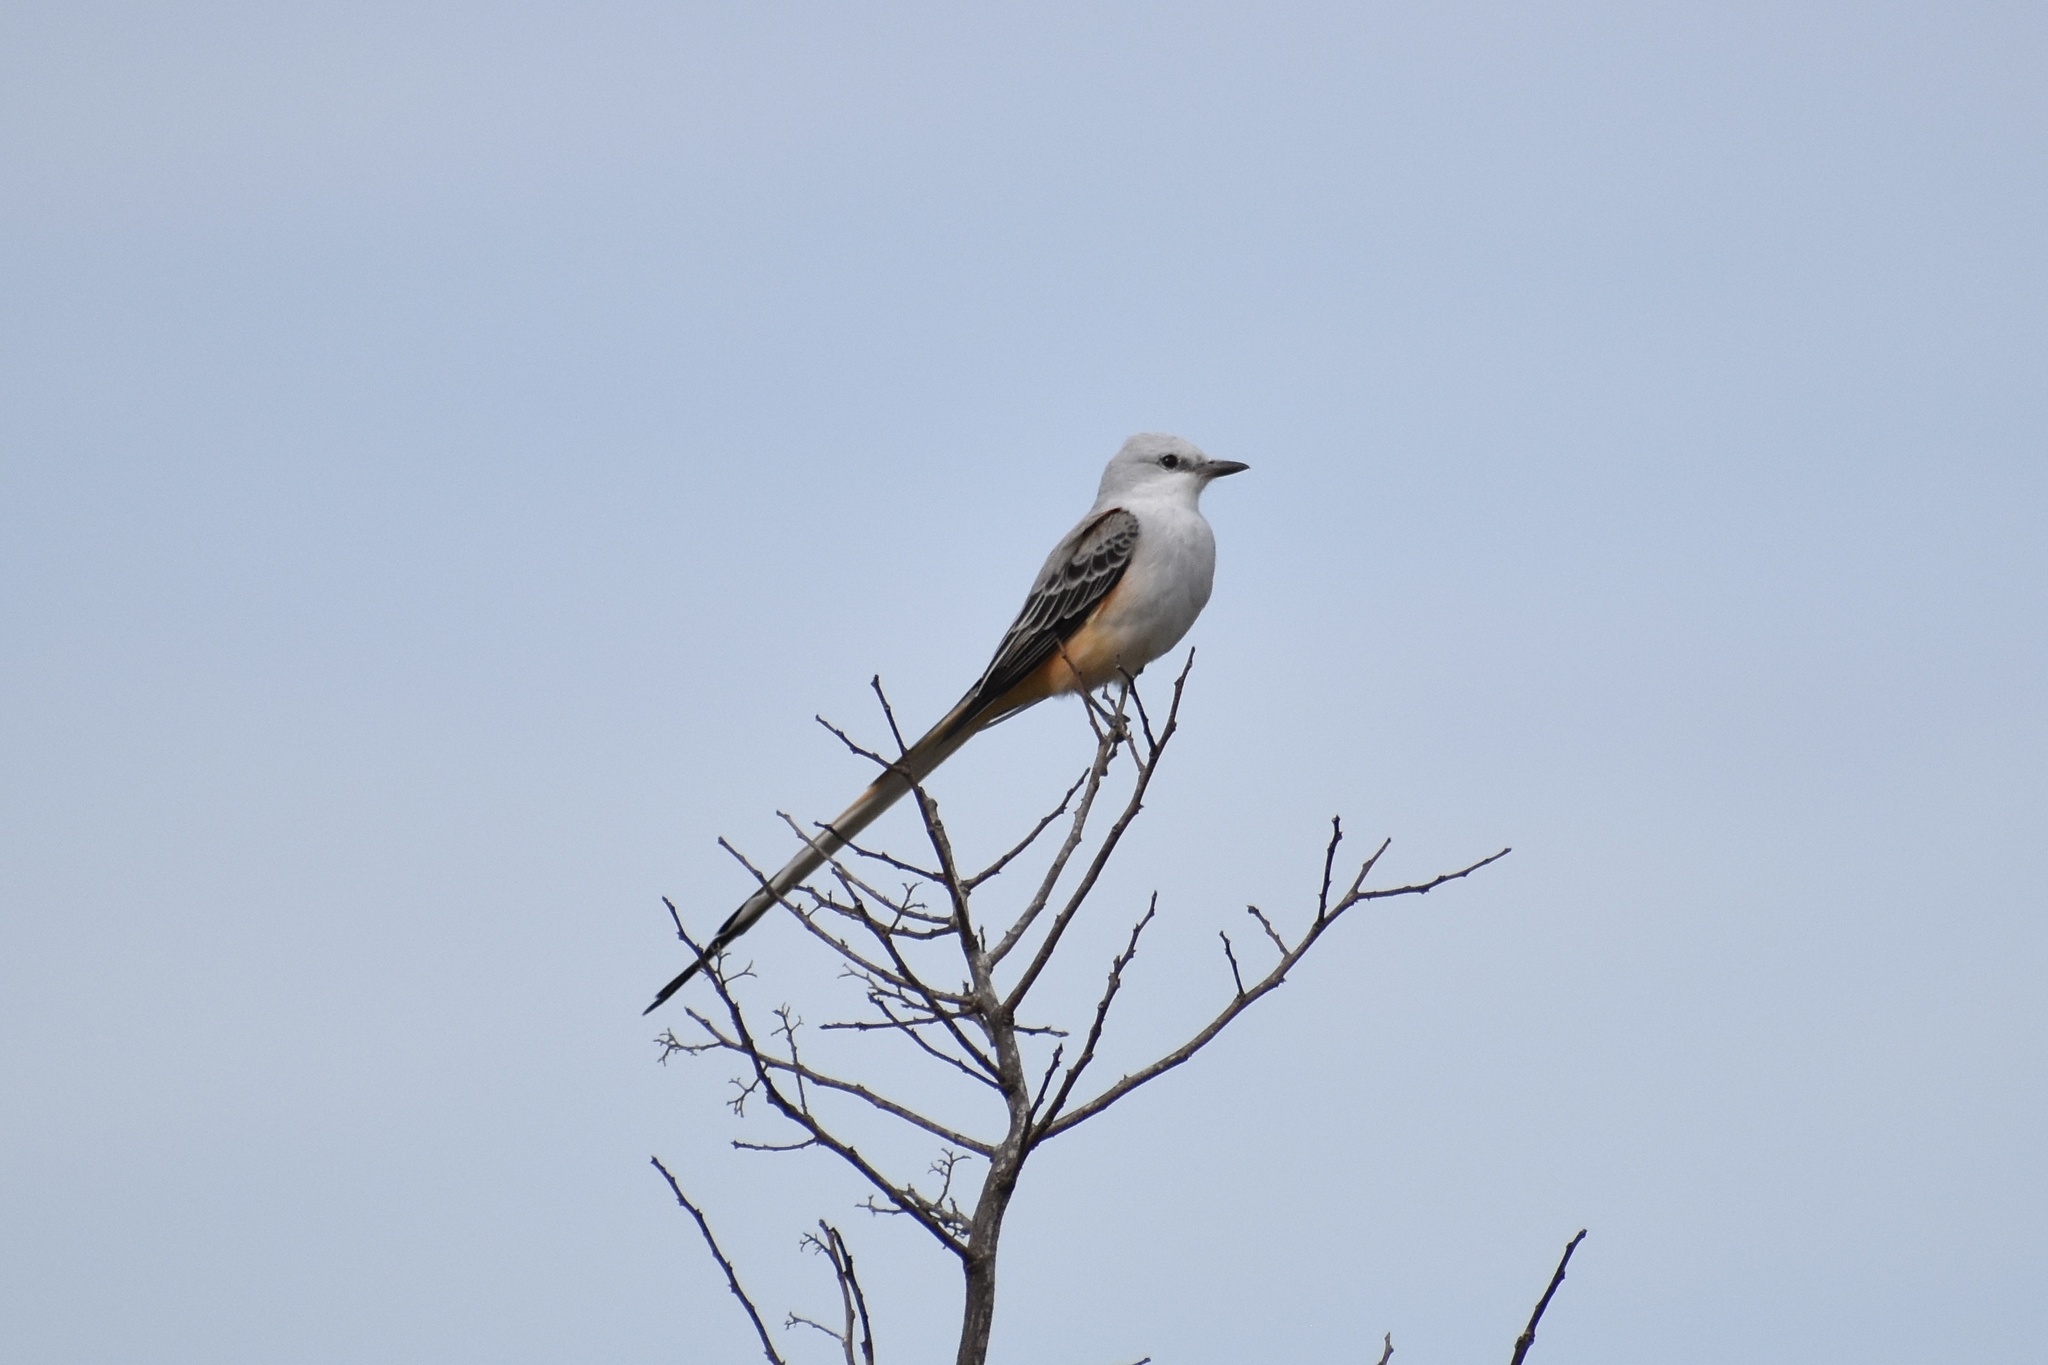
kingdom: Animalia
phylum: Chordata
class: Aves
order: Passeriformes
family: Tyrannidae
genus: Tyrannus
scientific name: Tyrannus forficatus
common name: Scissor-tailed flycatcher
